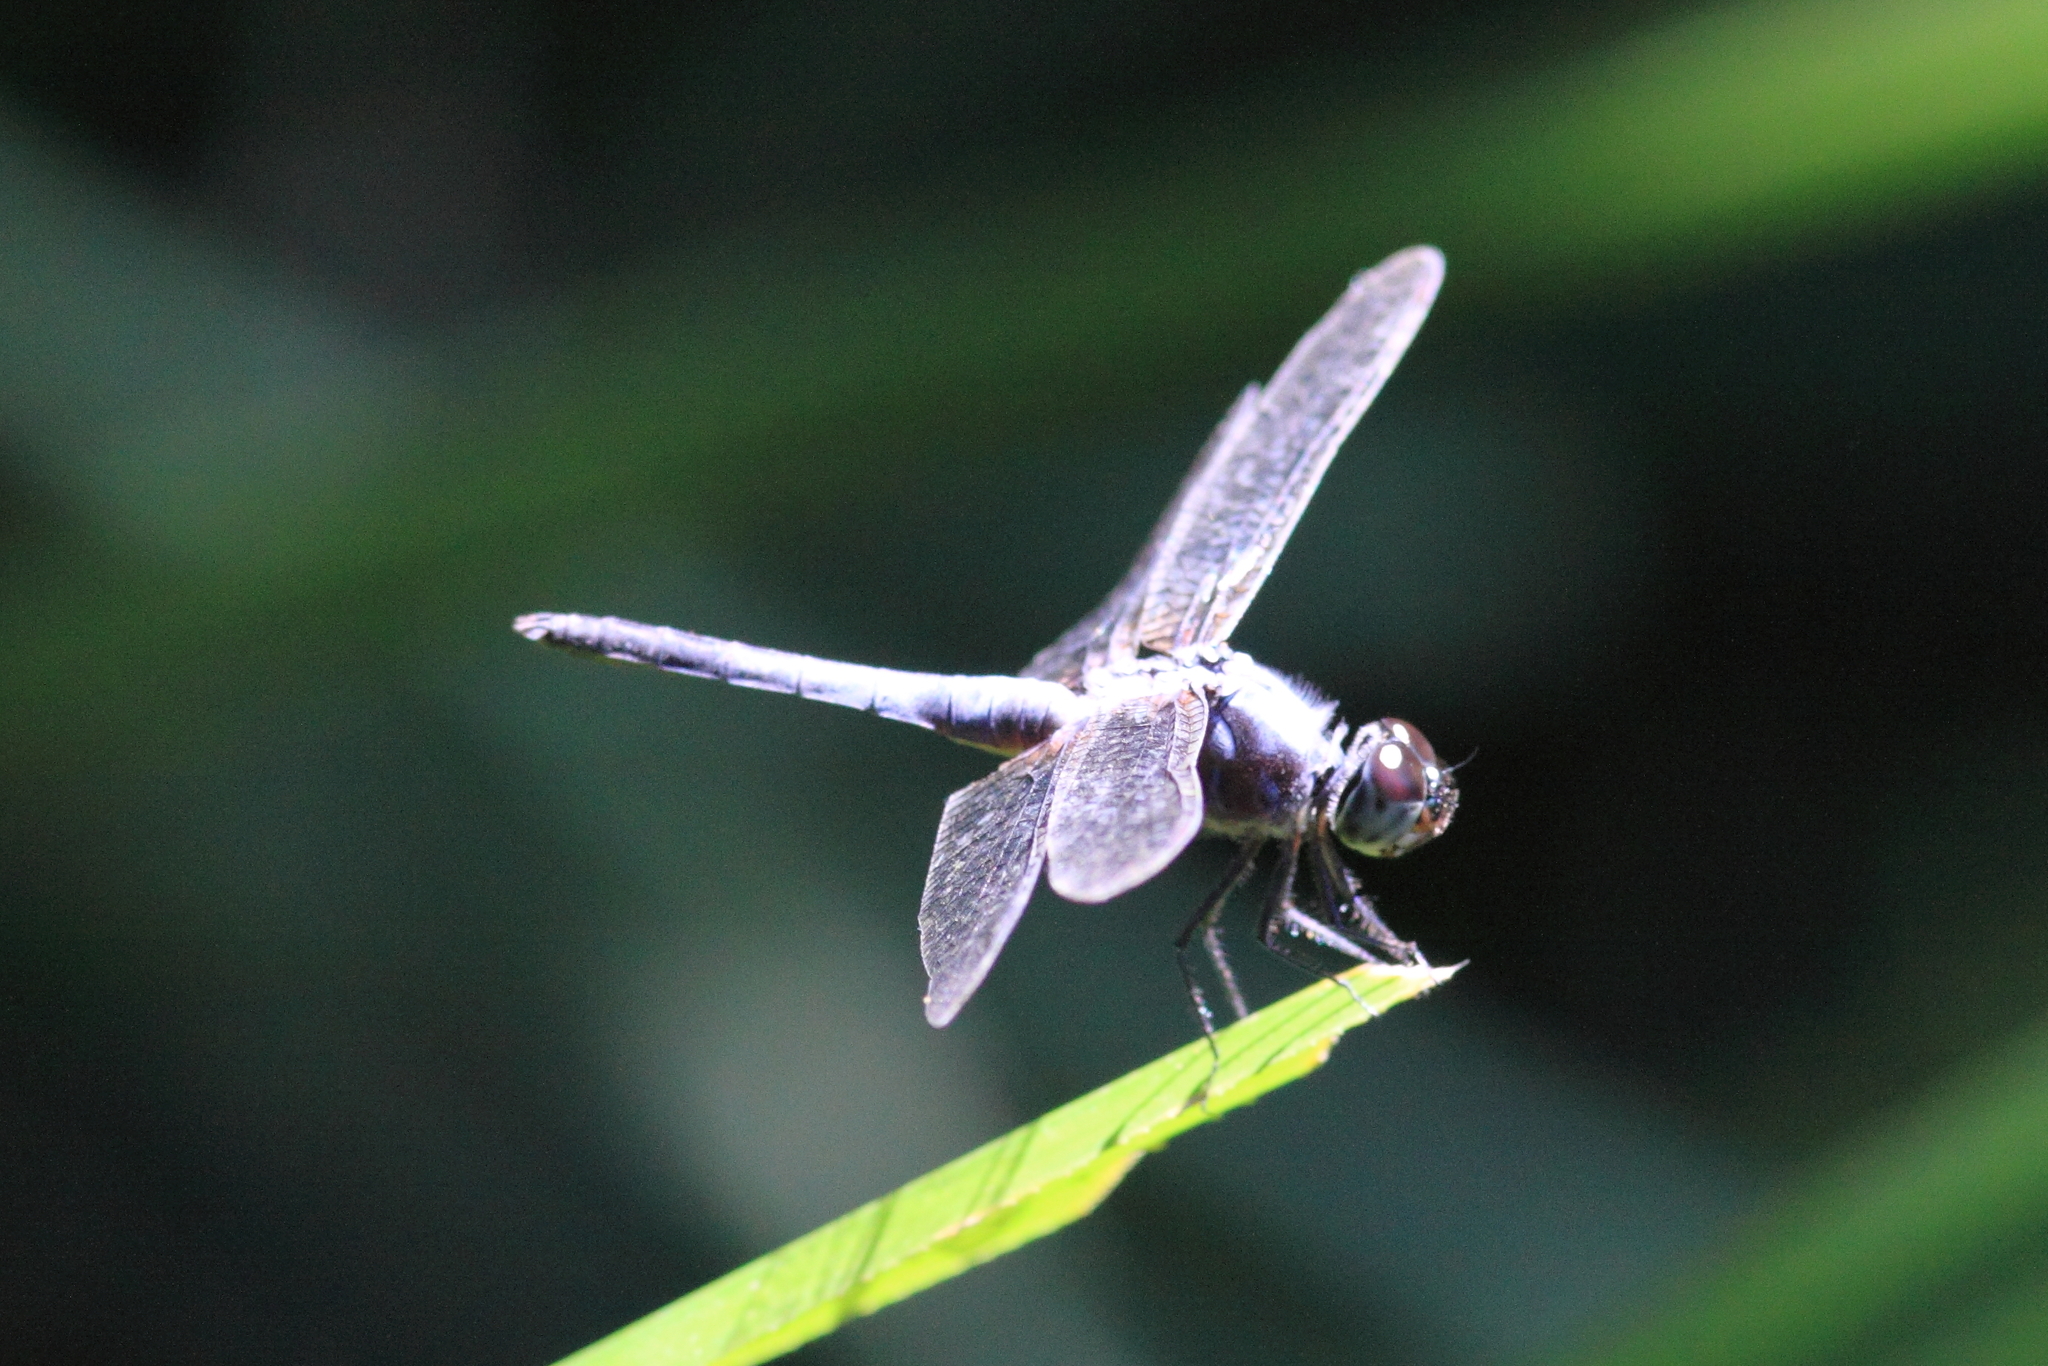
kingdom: Animalia
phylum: Arthropoda
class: Insecta
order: Odonata
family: Libellulidae
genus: Brachydiplax
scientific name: Brachydiplax chalybea
